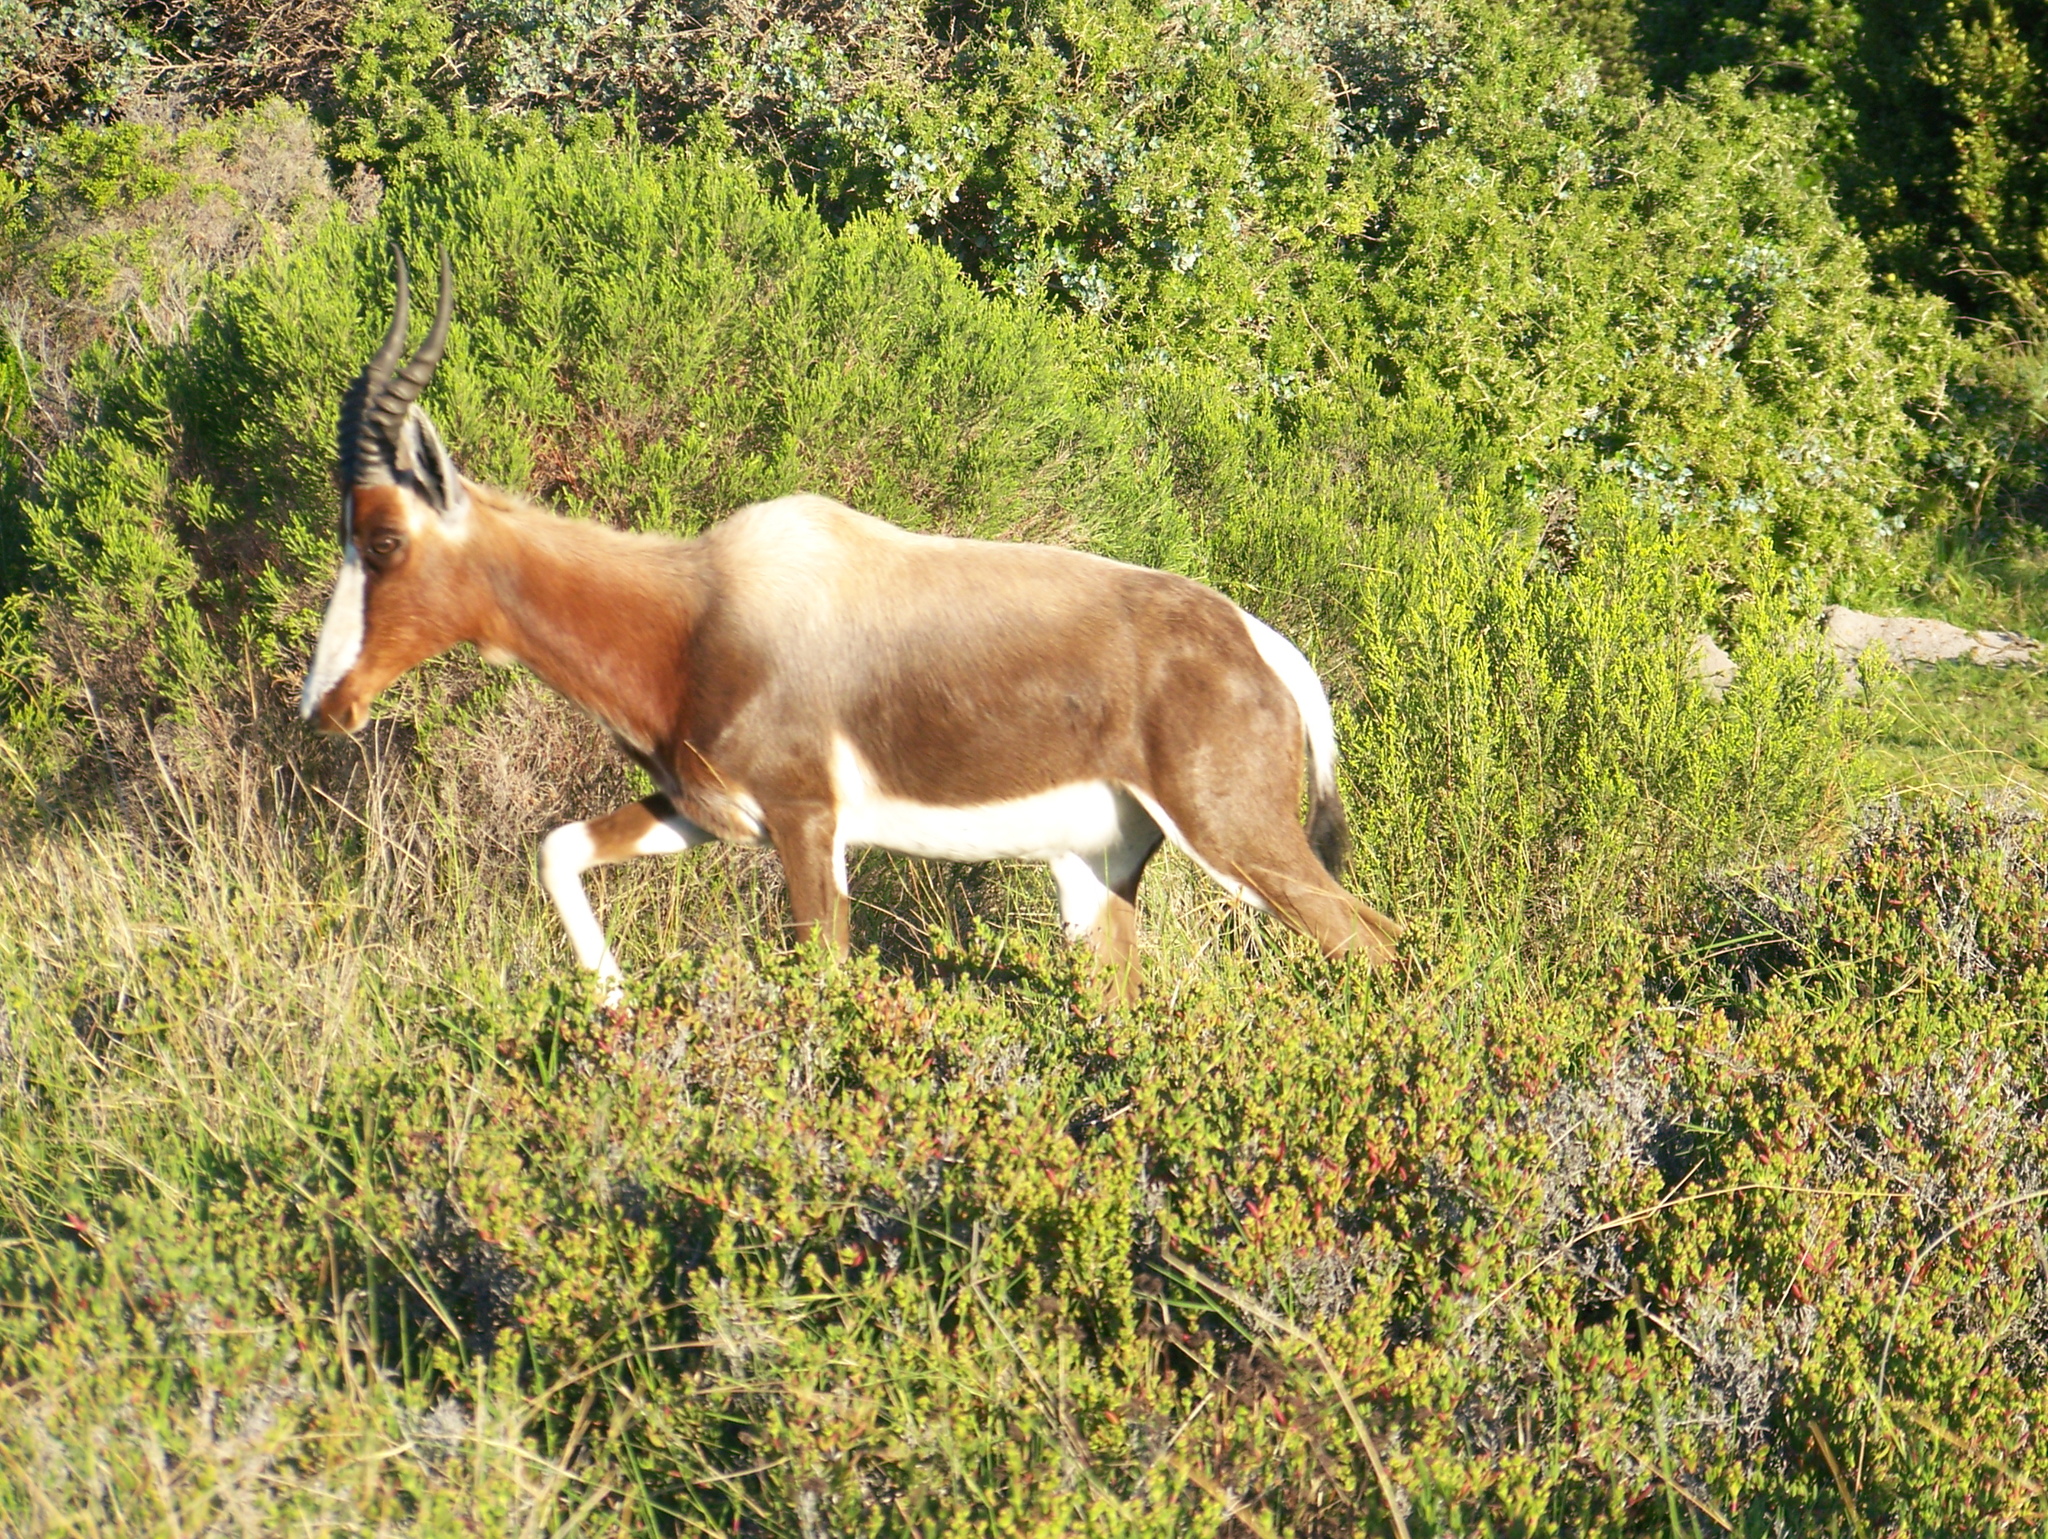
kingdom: Animalia
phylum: Chordata
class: Mammalia
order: Artiodactyla
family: Bovidae
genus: Damaliscus
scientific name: Damaliscus pygargus
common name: Bontebok
